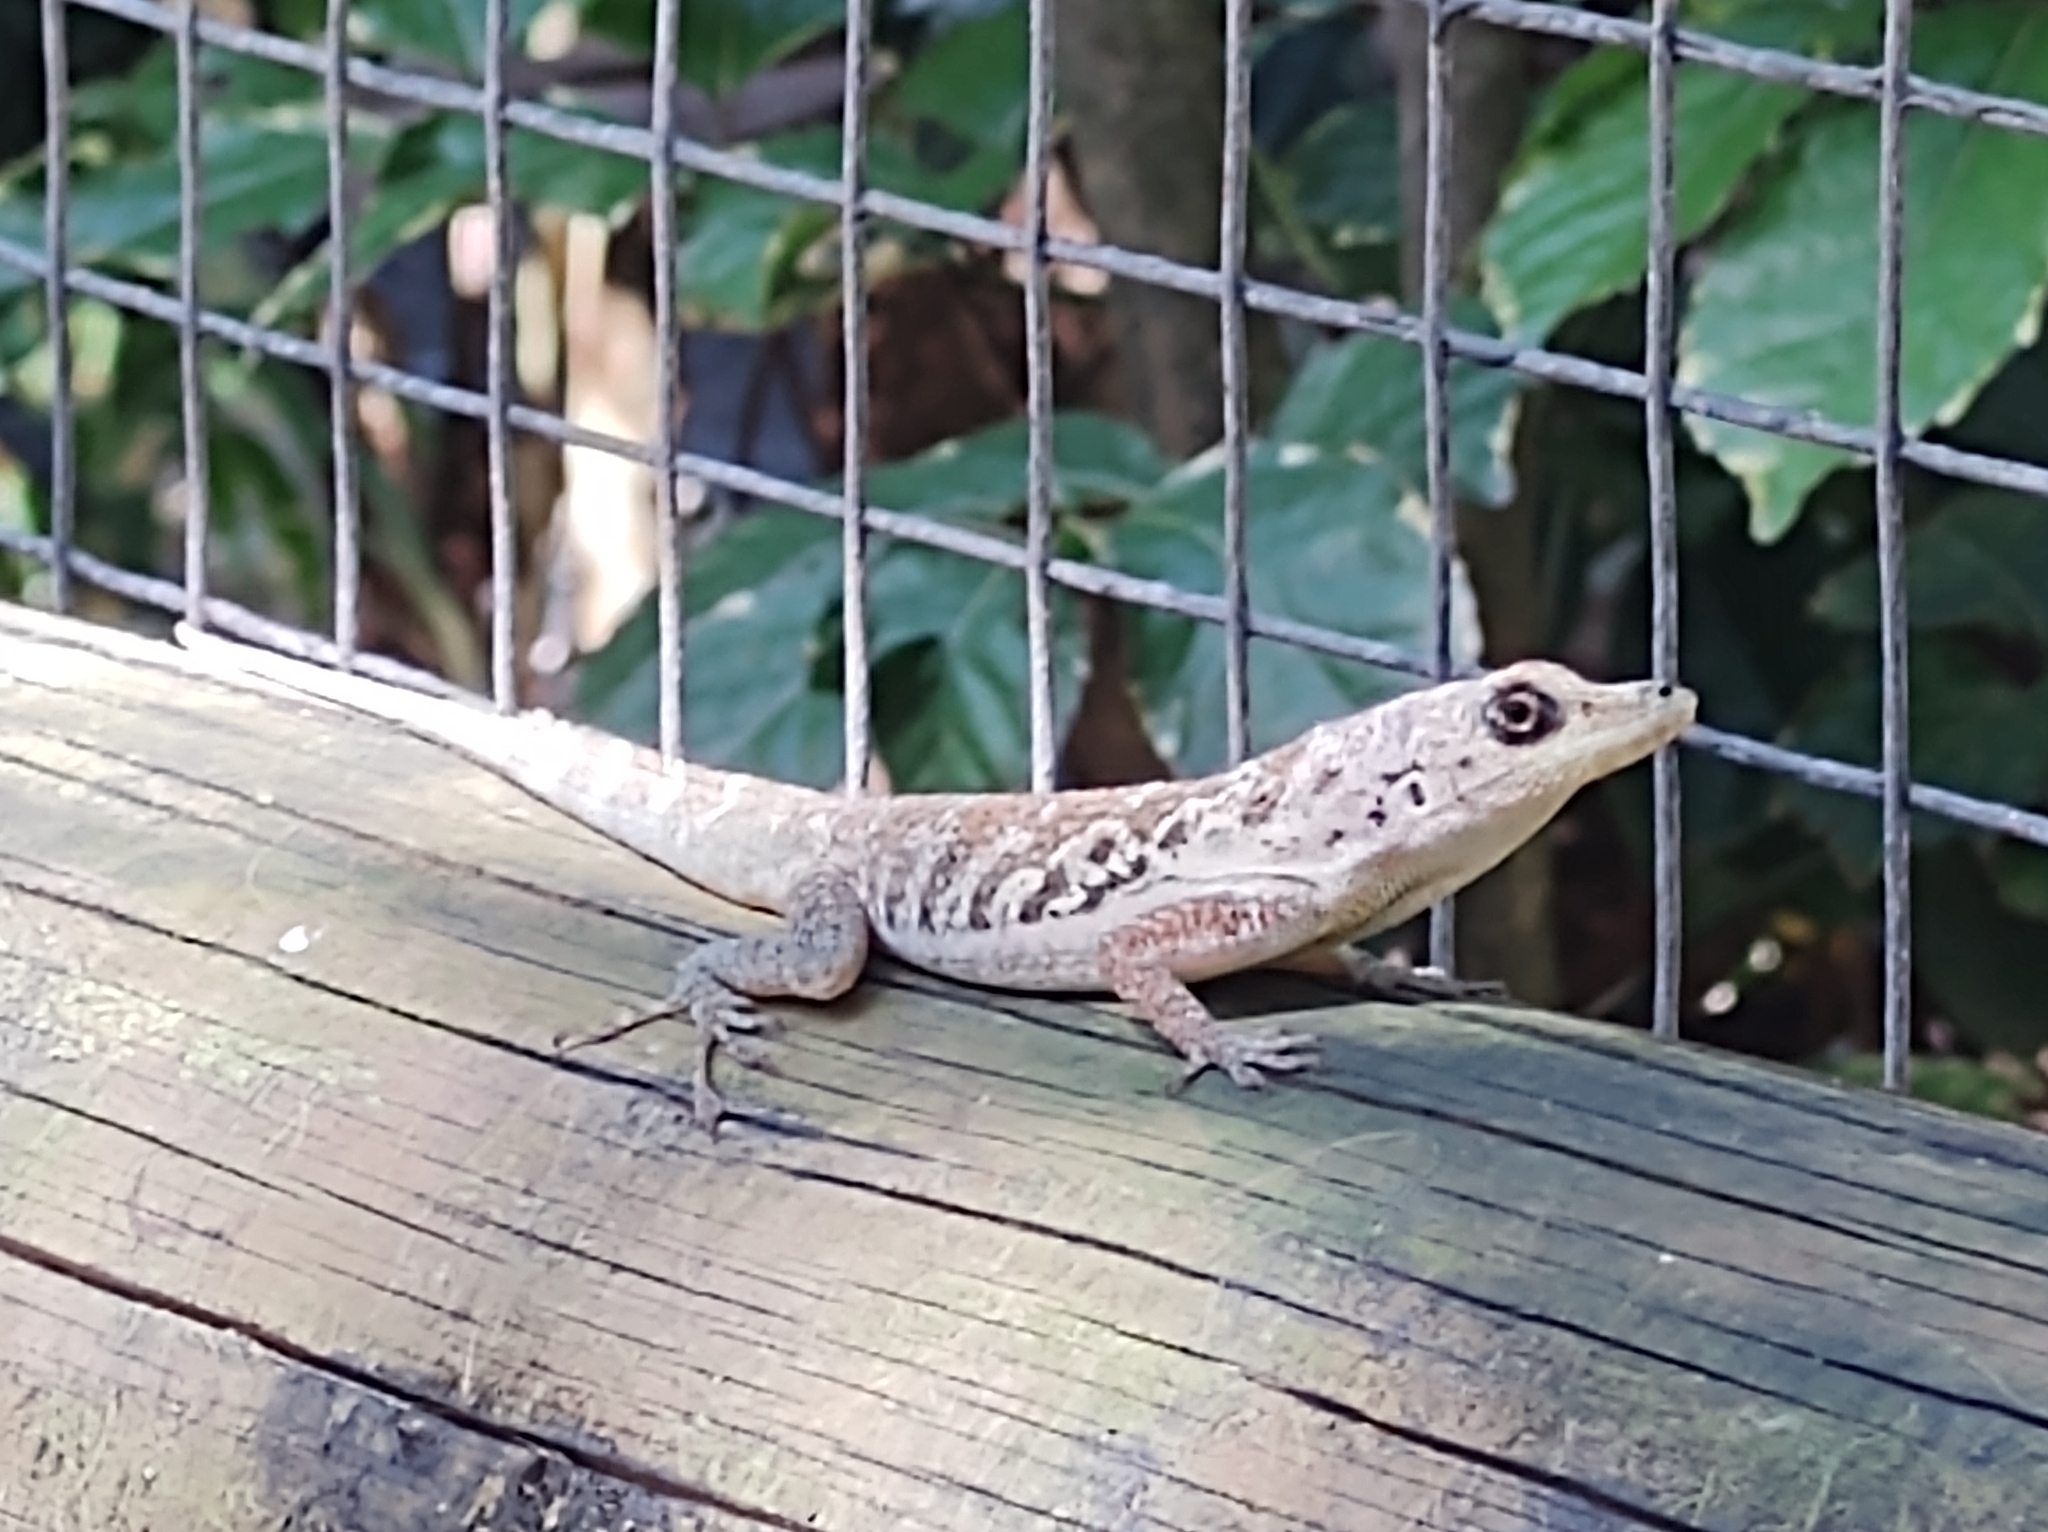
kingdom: Animalia
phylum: Chordata
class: Squamata
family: Dactyloidae
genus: Anolis
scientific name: Anolis roquet
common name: Martinique anole
